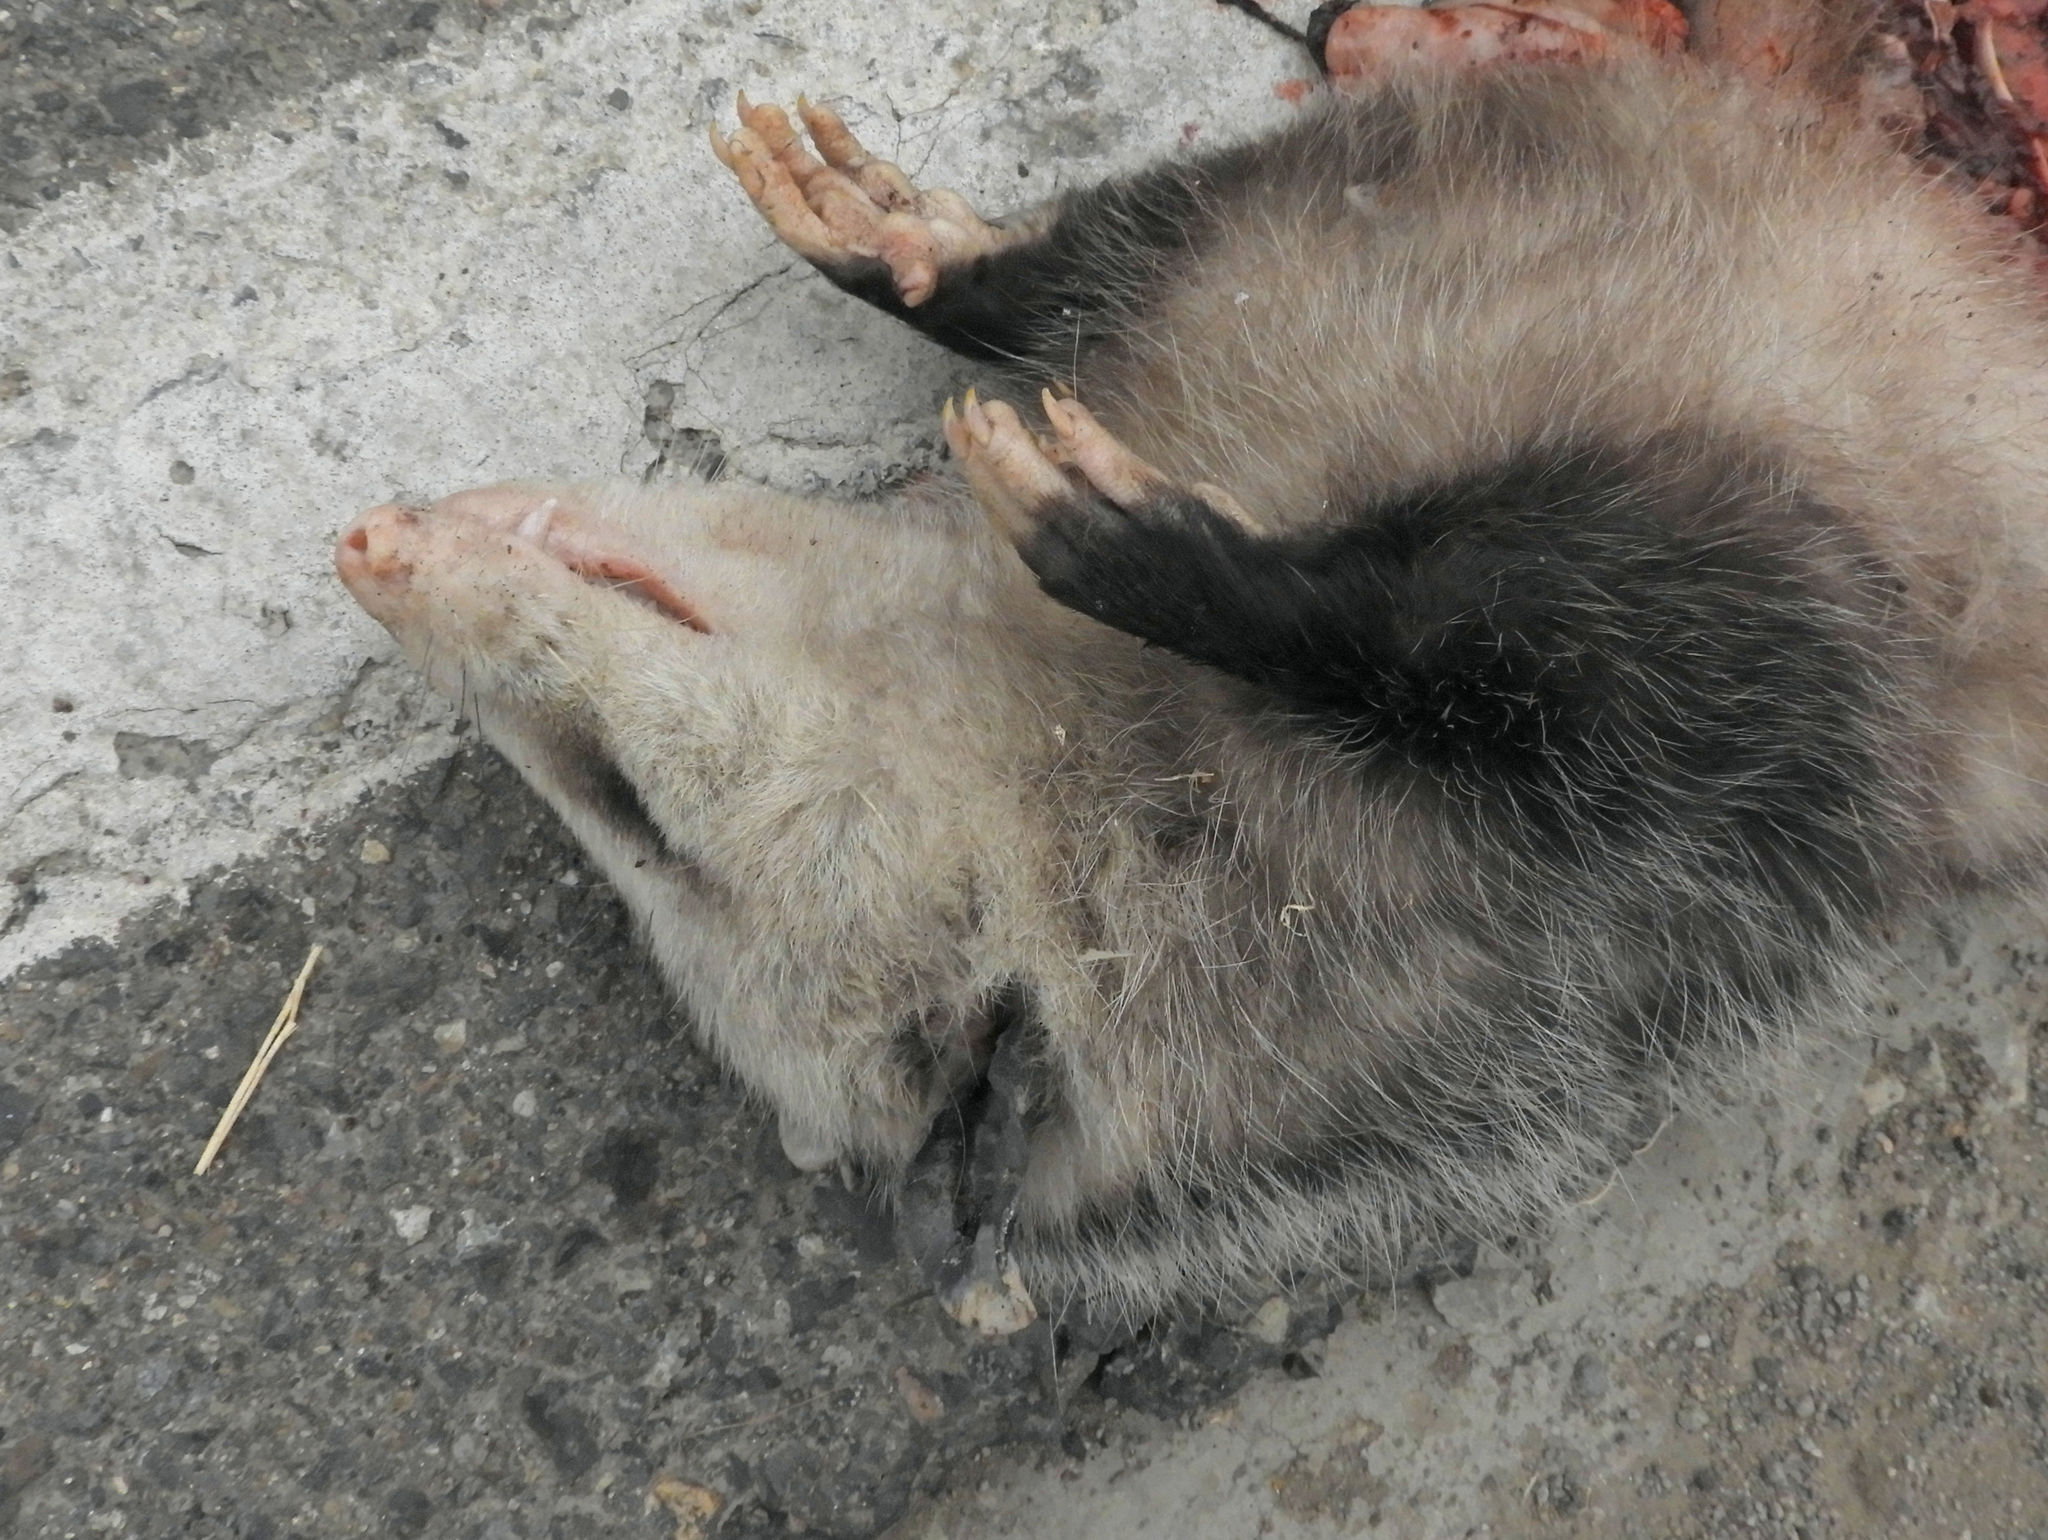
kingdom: Animalia
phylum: Chordata
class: Mammalia
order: Didelphimorphia
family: Didelphidae
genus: Didelphis
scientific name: Didelphis virginiana
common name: Virginia opossum
